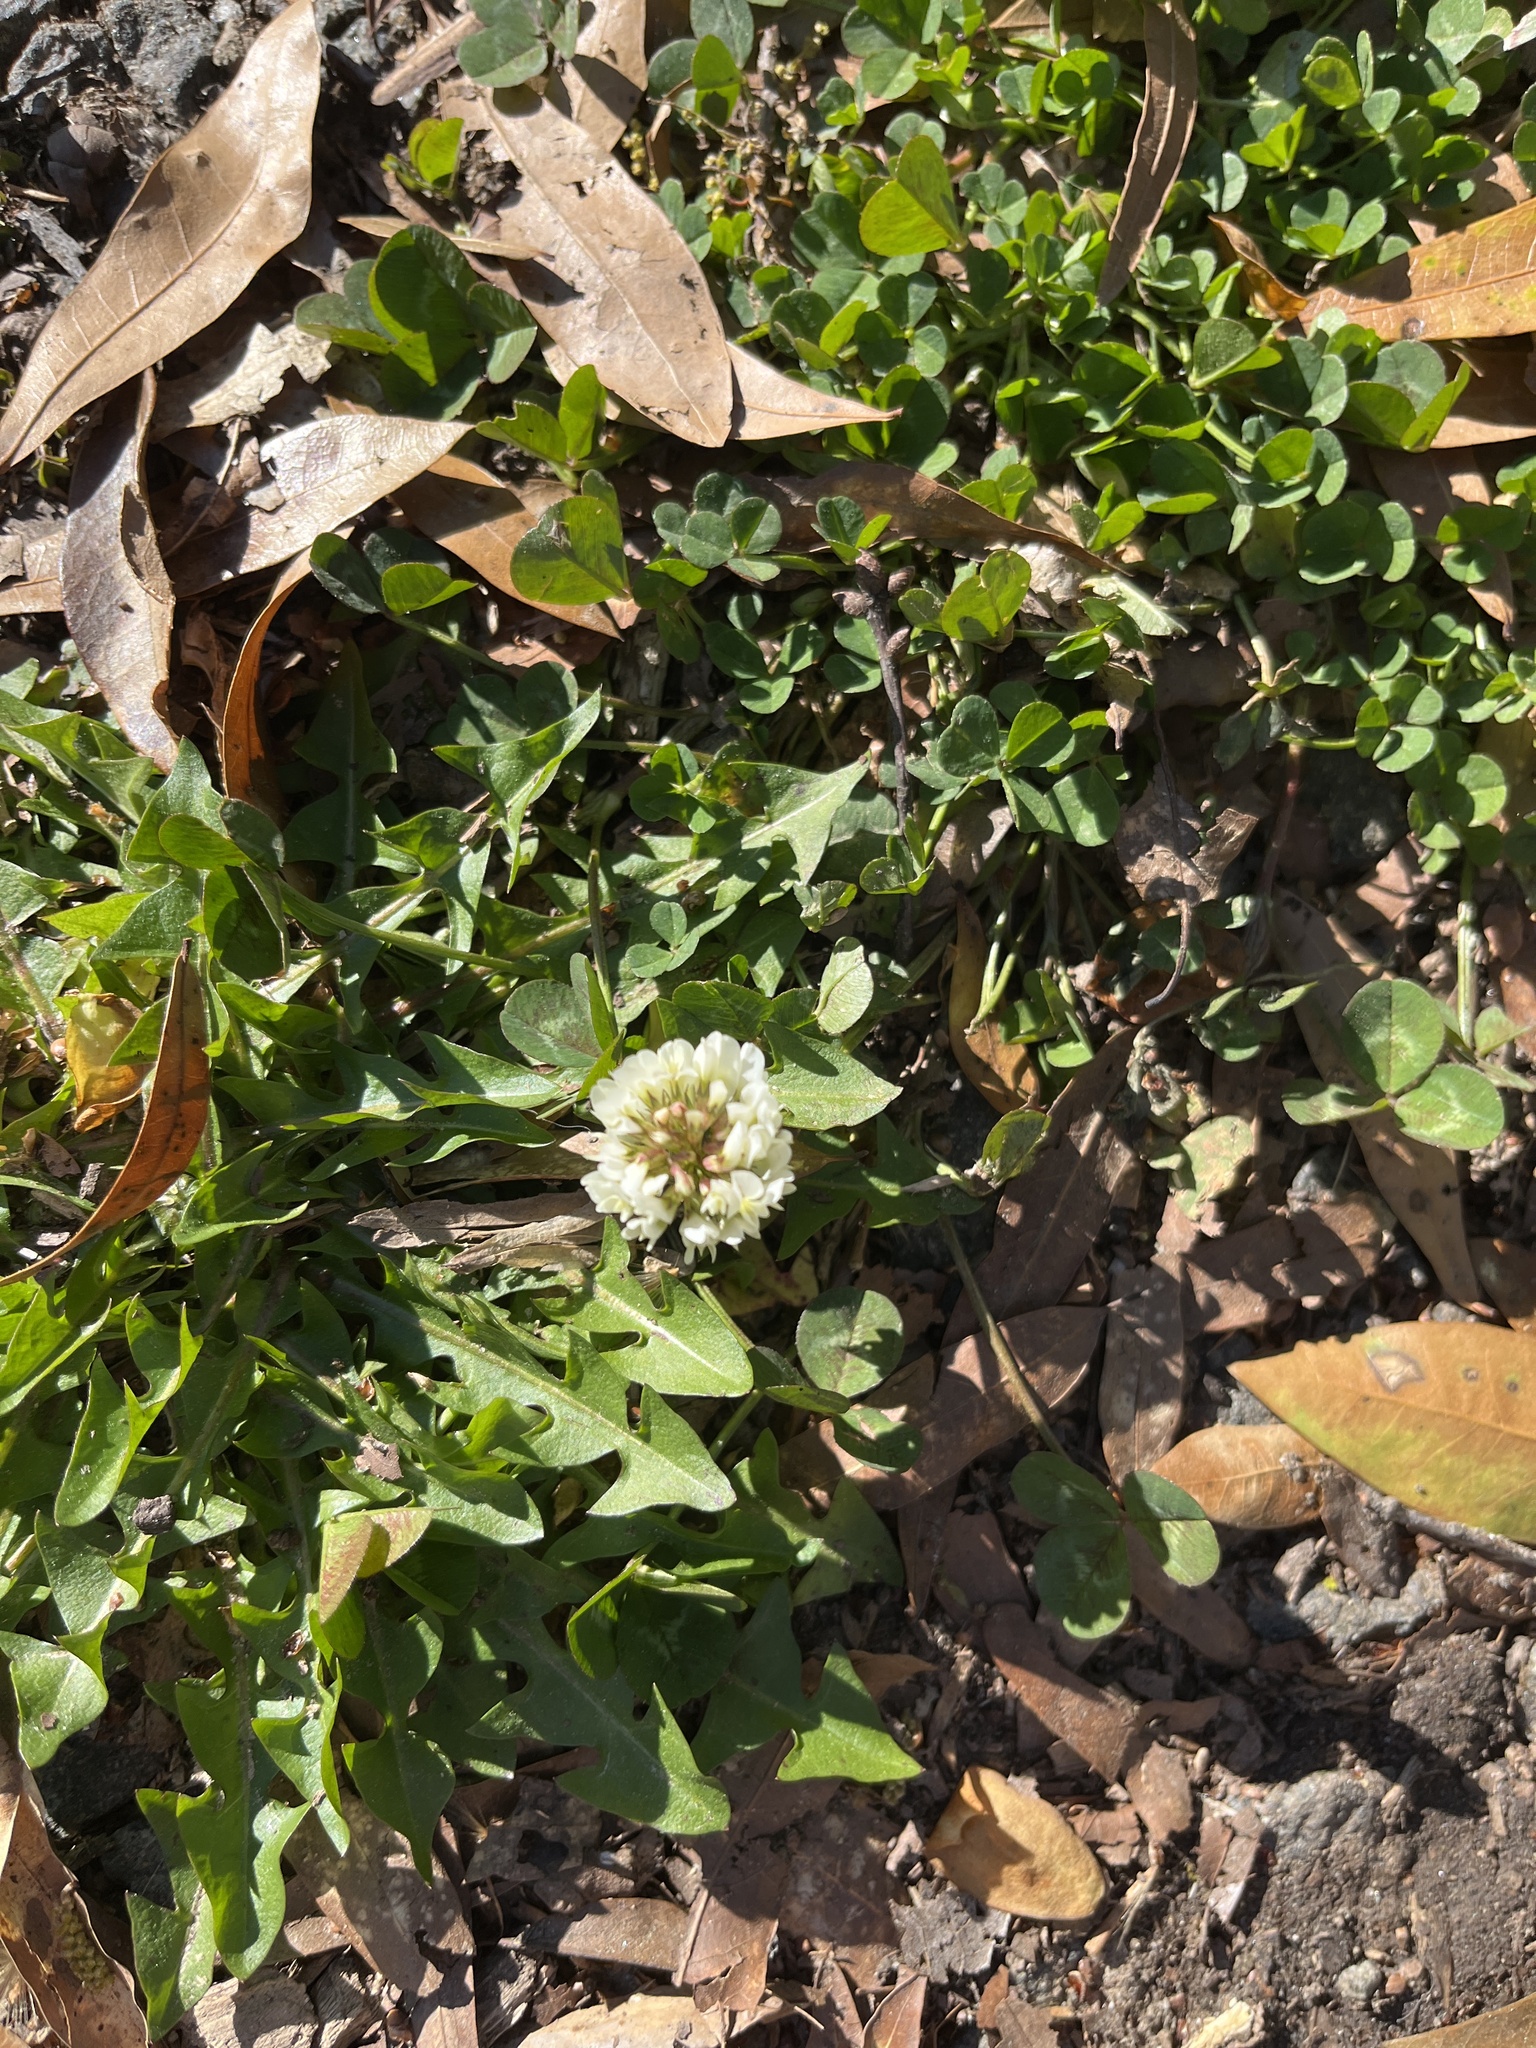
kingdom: Plantae
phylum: Tracheophyta
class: Magnoliopsida
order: Fabales
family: Fabaceae
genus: Trifolium
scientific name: Trifolium repens
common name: White clover
